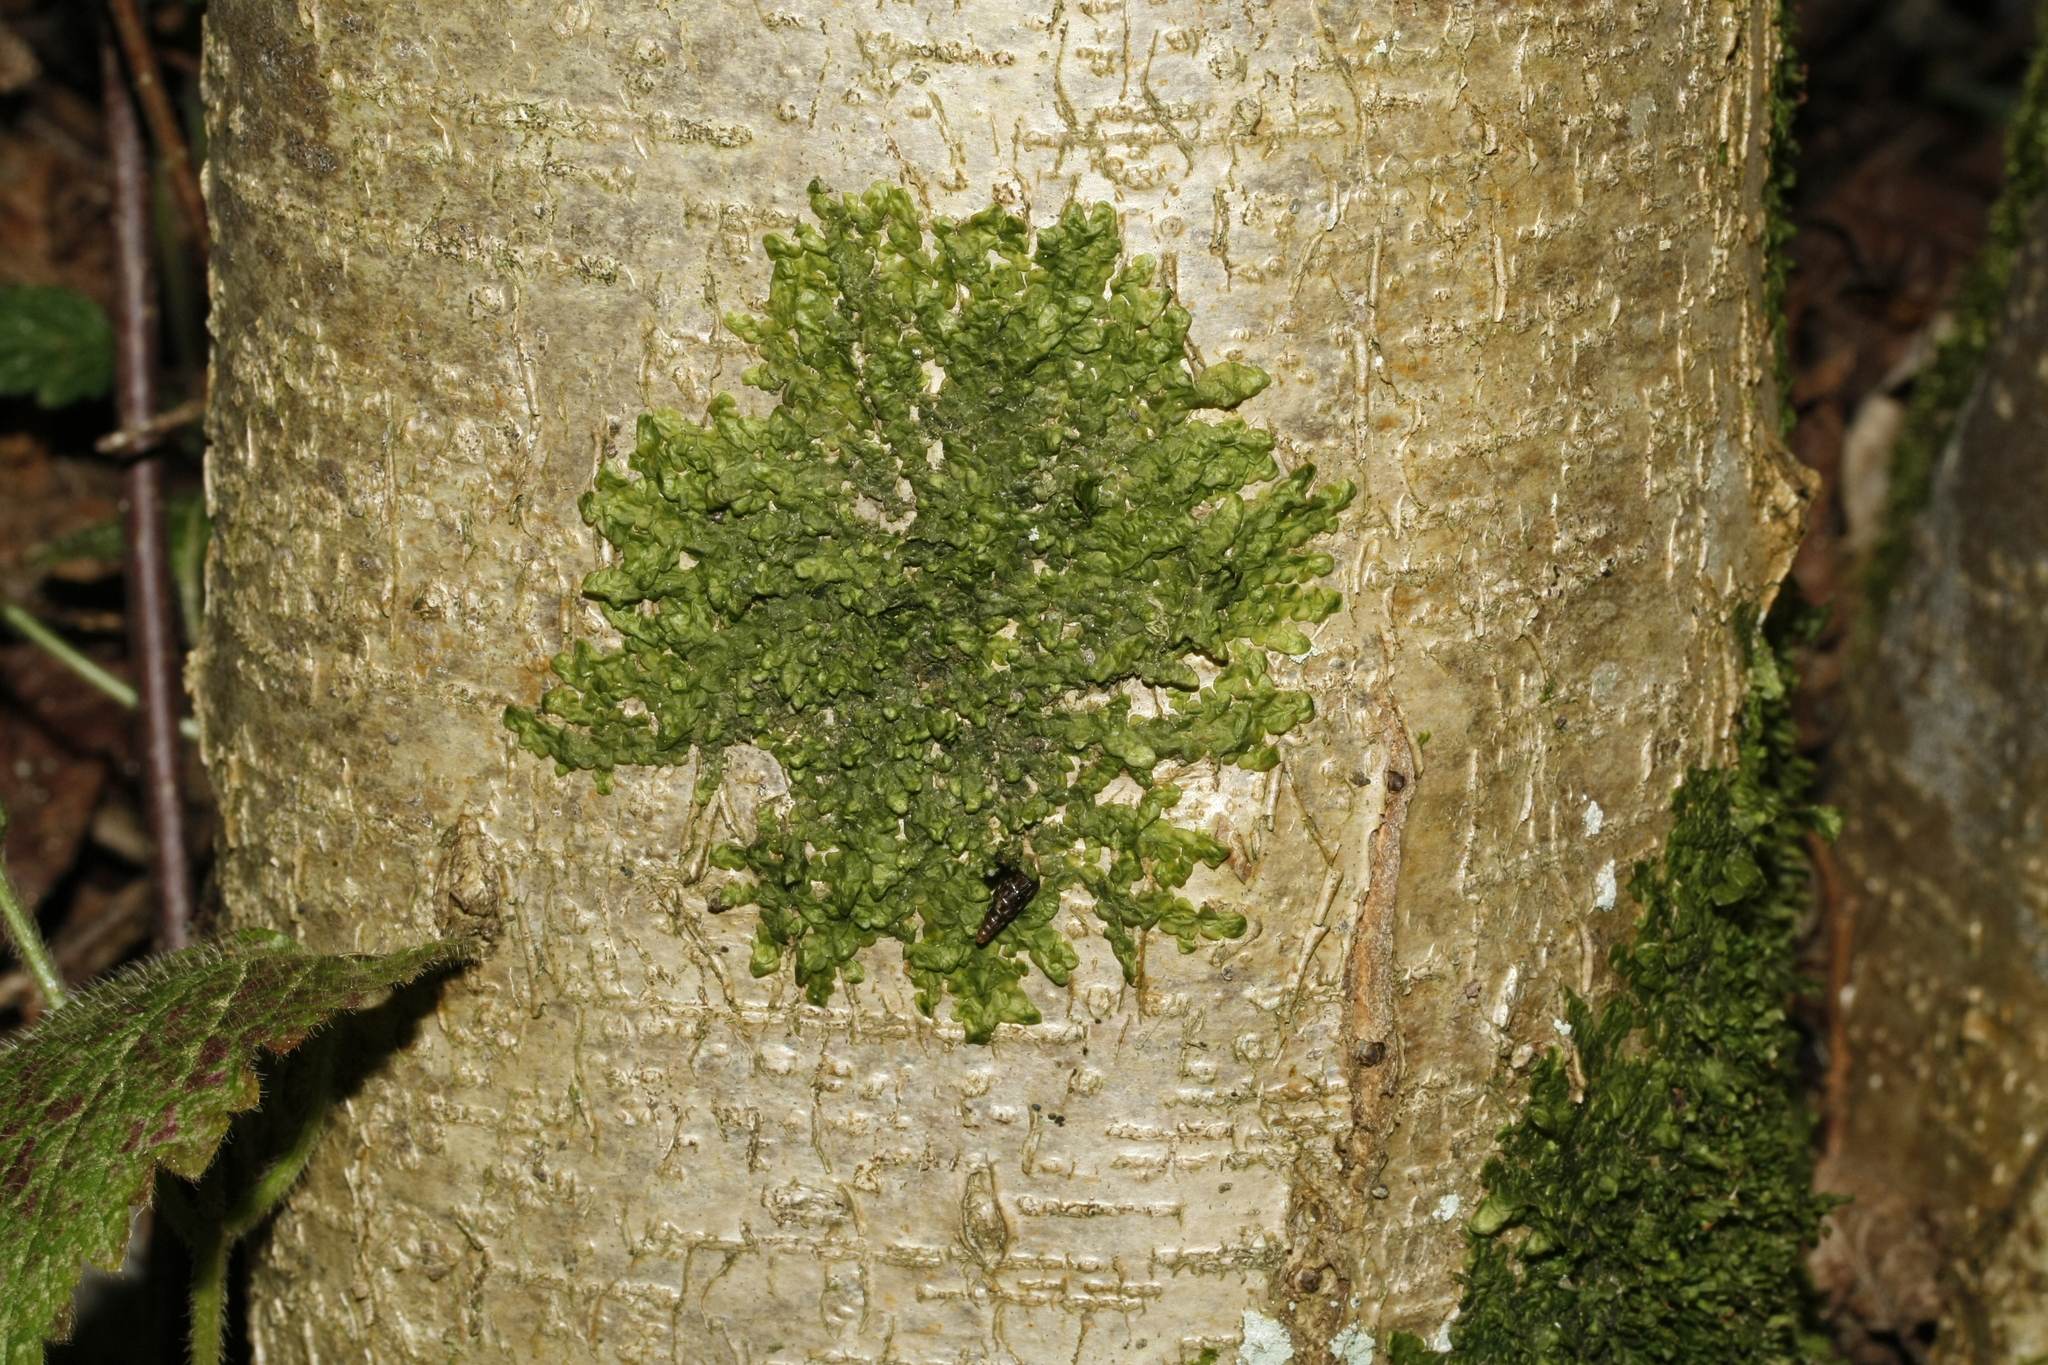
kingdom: Plantae
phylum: Marchantiophyta
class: Jungermanniopsida
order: Porellales
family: Radulaceae
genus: Radula
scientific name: Radula complanata
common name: Flat-leaved scalewort
